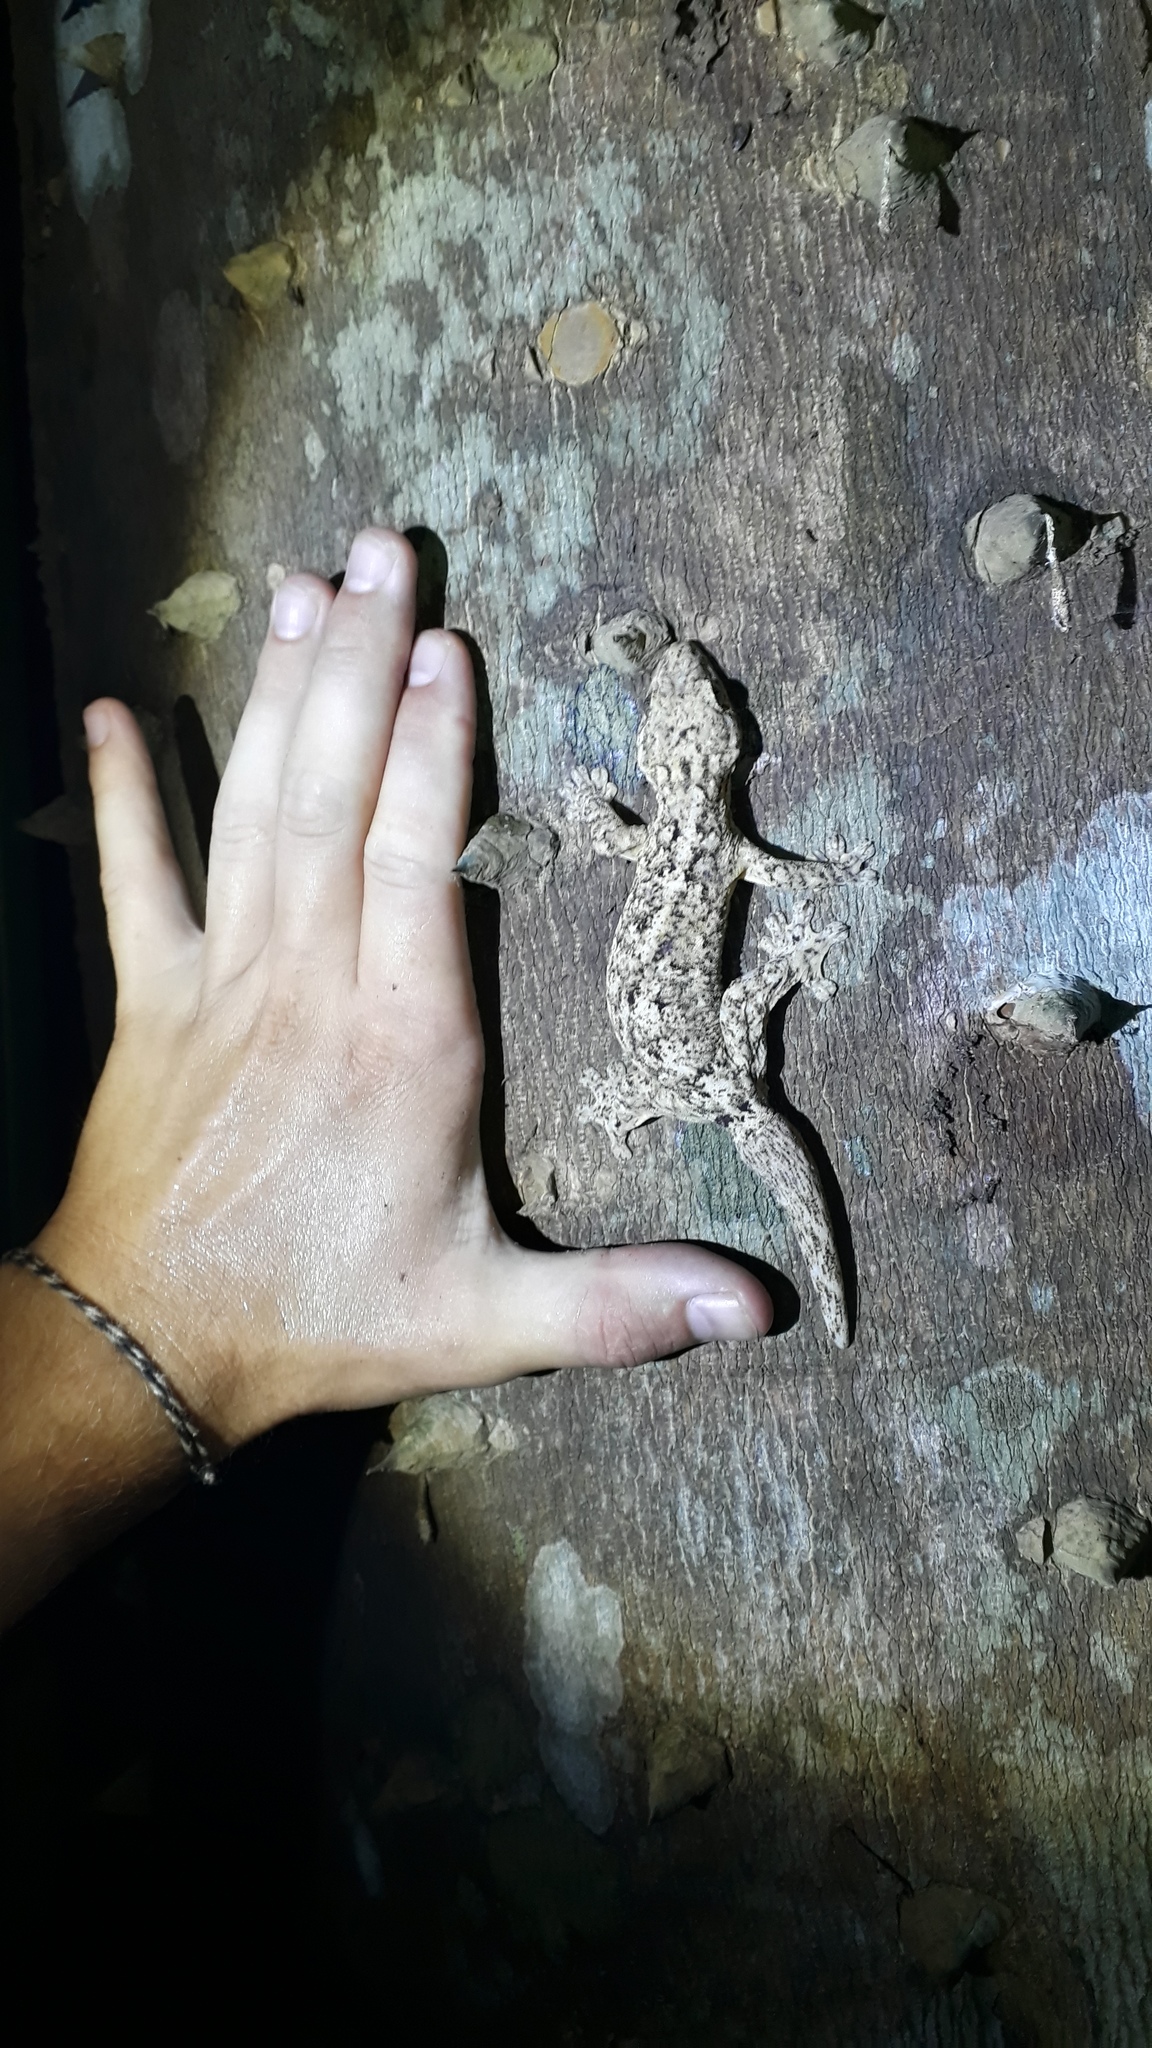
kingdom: Animalia
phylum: Chordata
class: Squamata
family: Phyllodactylidae
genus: Thecadactylus
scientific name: Thecadactylus rapicauda
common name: Turnip-tailed gecko
